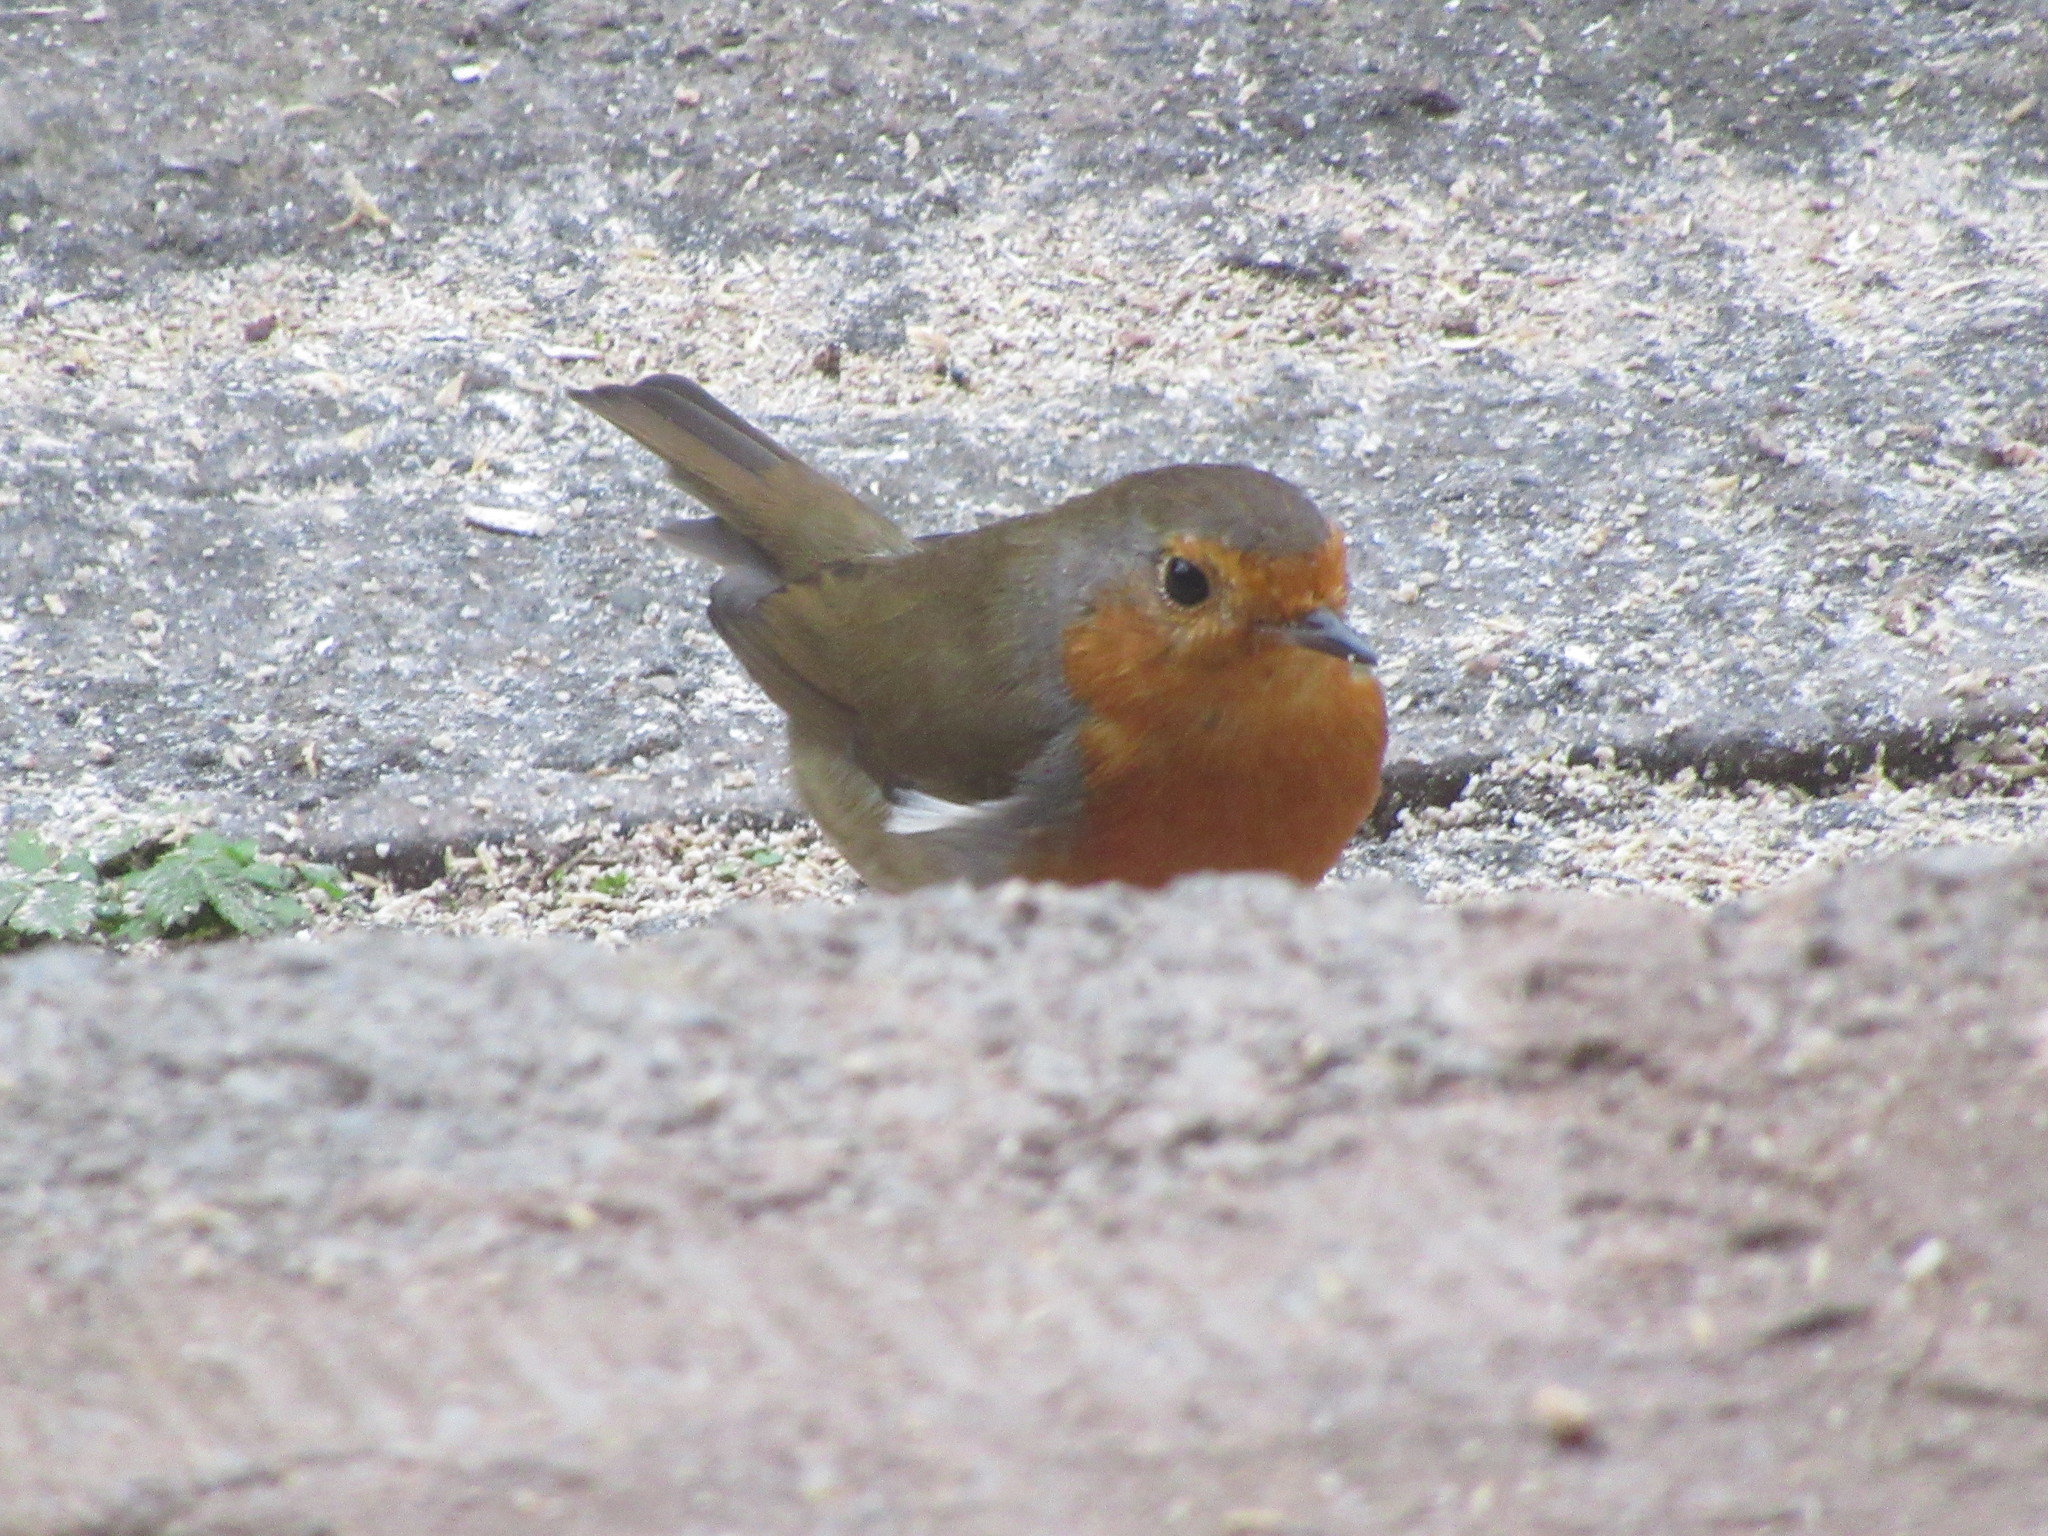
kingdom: Animalia
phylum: Chordata
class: Aves
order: Passeriformes
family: Muscicapidae
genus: Erithacus
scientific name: Erithacus rubecula
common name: European robin
